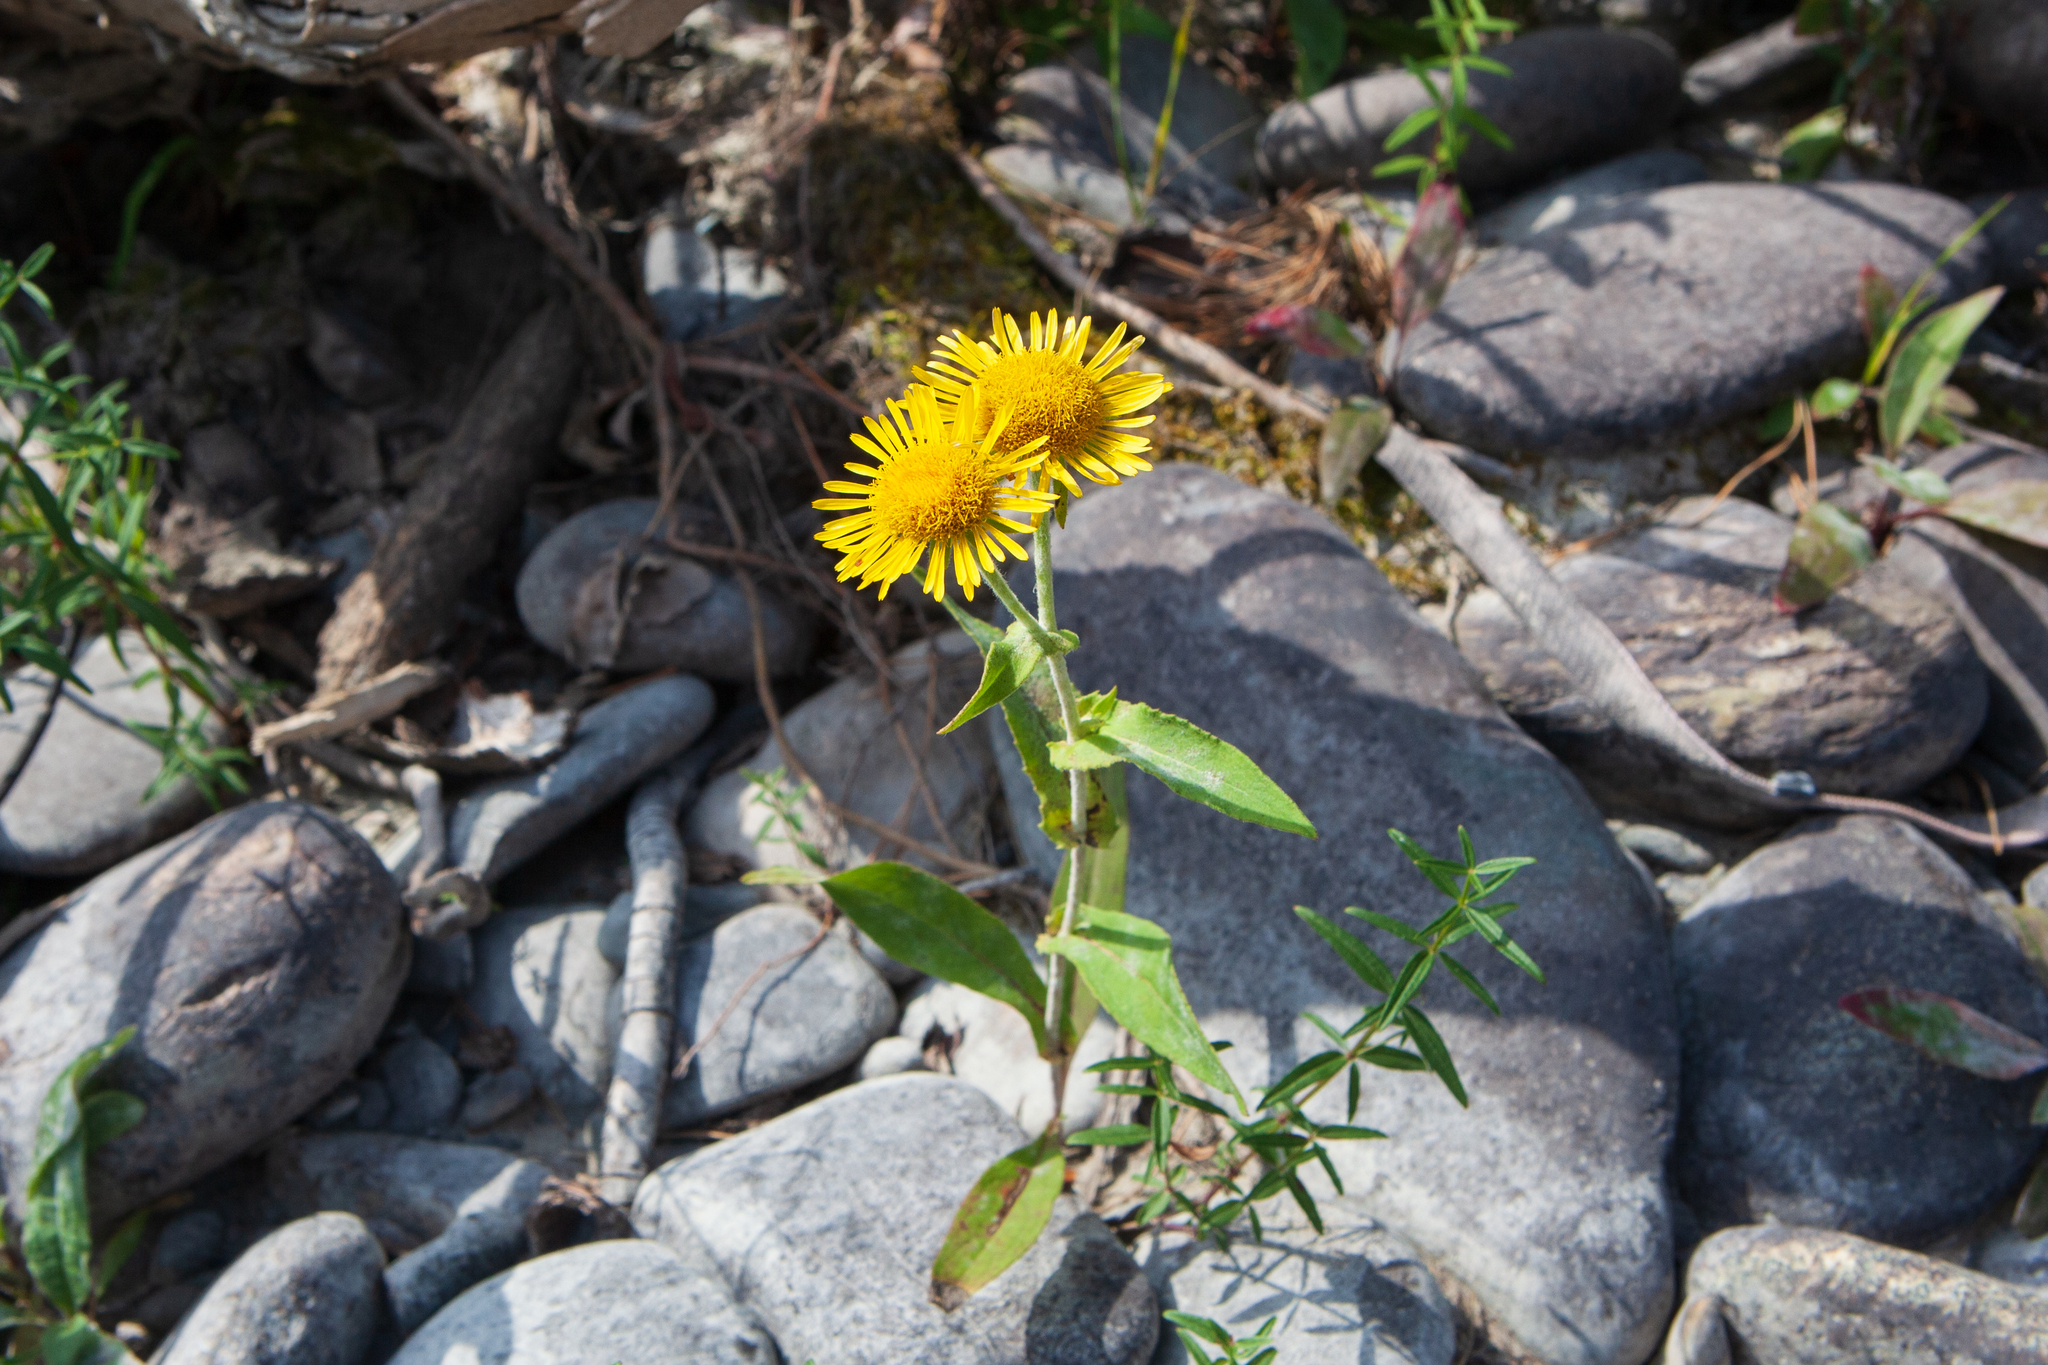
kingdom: Plantae
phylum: Tracheophyta
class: Magnoliopsida
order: Asterales
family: Asteraceae
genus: Pentanema
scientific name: Pentanema britannicum
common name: British elecampane
